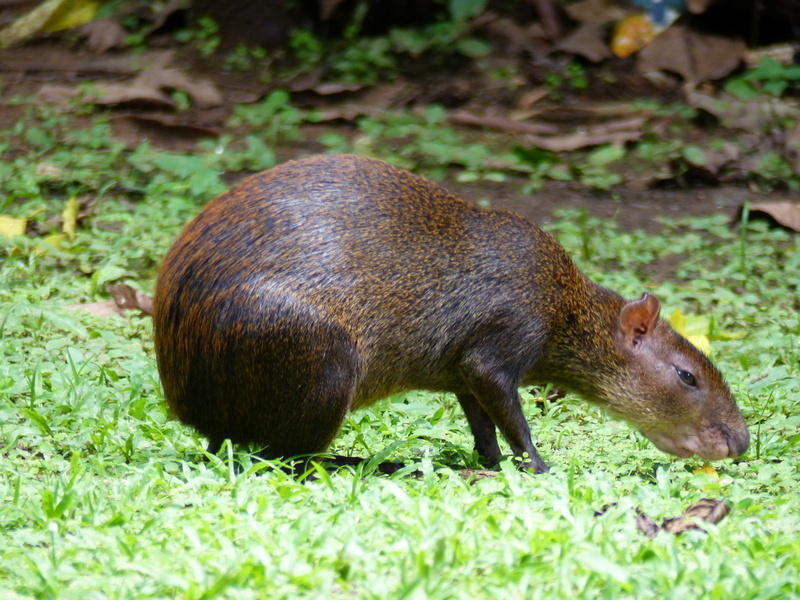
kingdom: Animalia
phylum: Chordata
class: Mammalia
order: Rodentia
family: Dasyproctidae
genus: Dasyprocta
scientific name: Dasyprocta punctata
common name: Central american agouti
